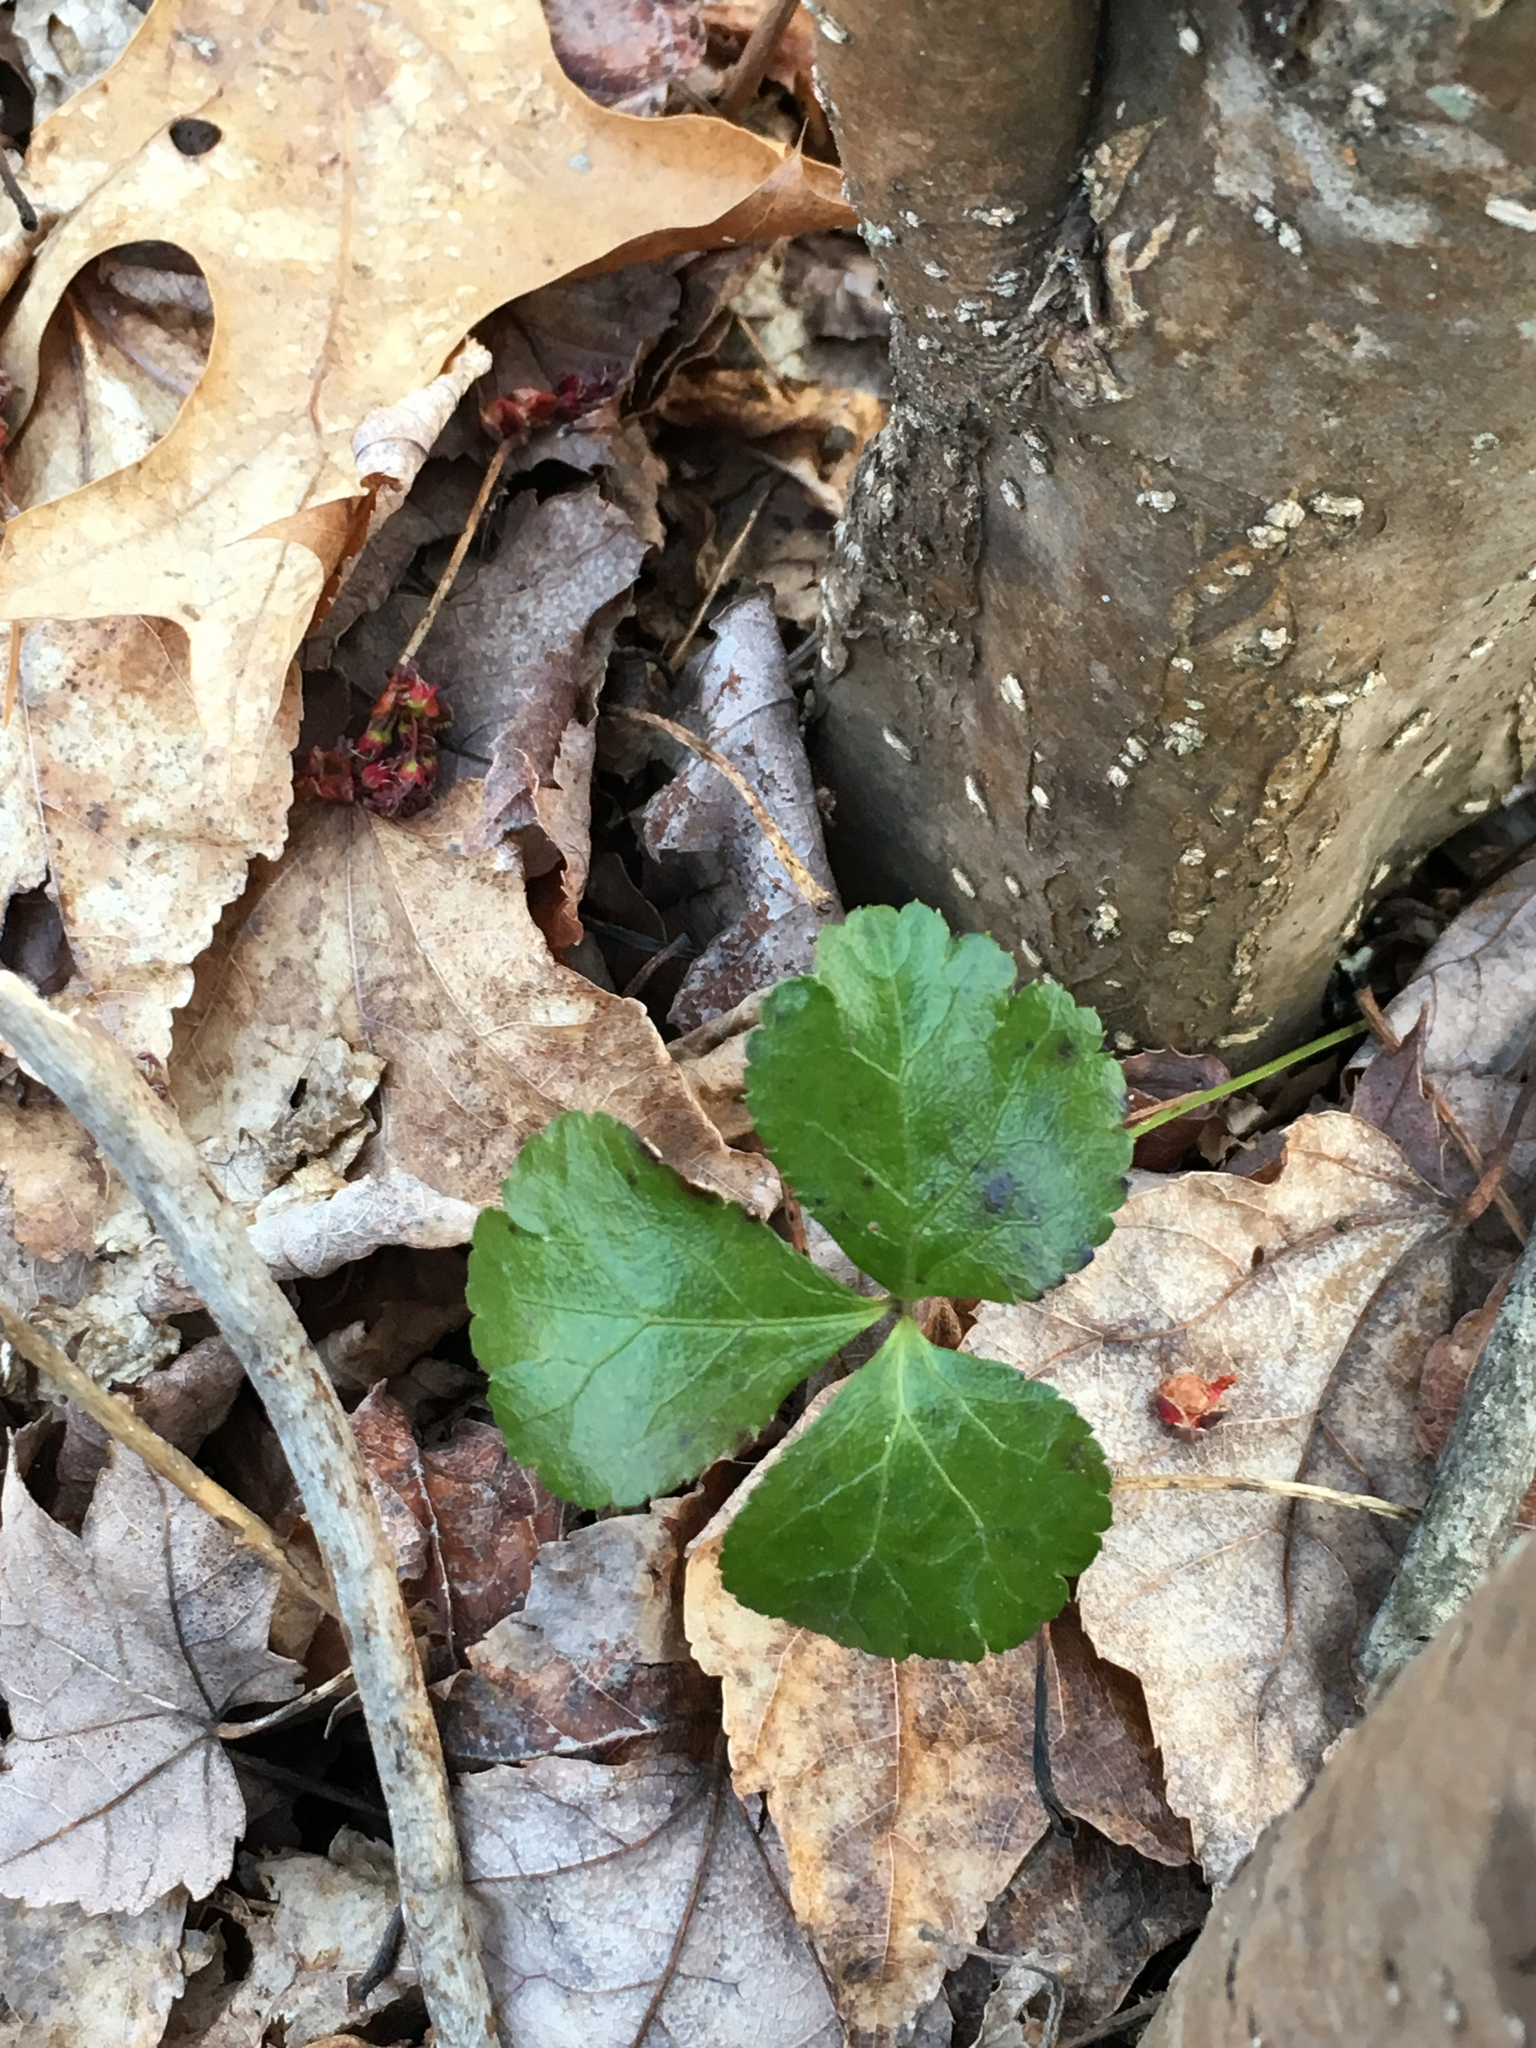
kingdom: Plantae
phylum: Tracheophyta
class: Magnoliopsida
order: Ranunculales
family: Ranunculaceae
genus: Coptis
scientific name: Coptis trifolia
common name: Canker-root
